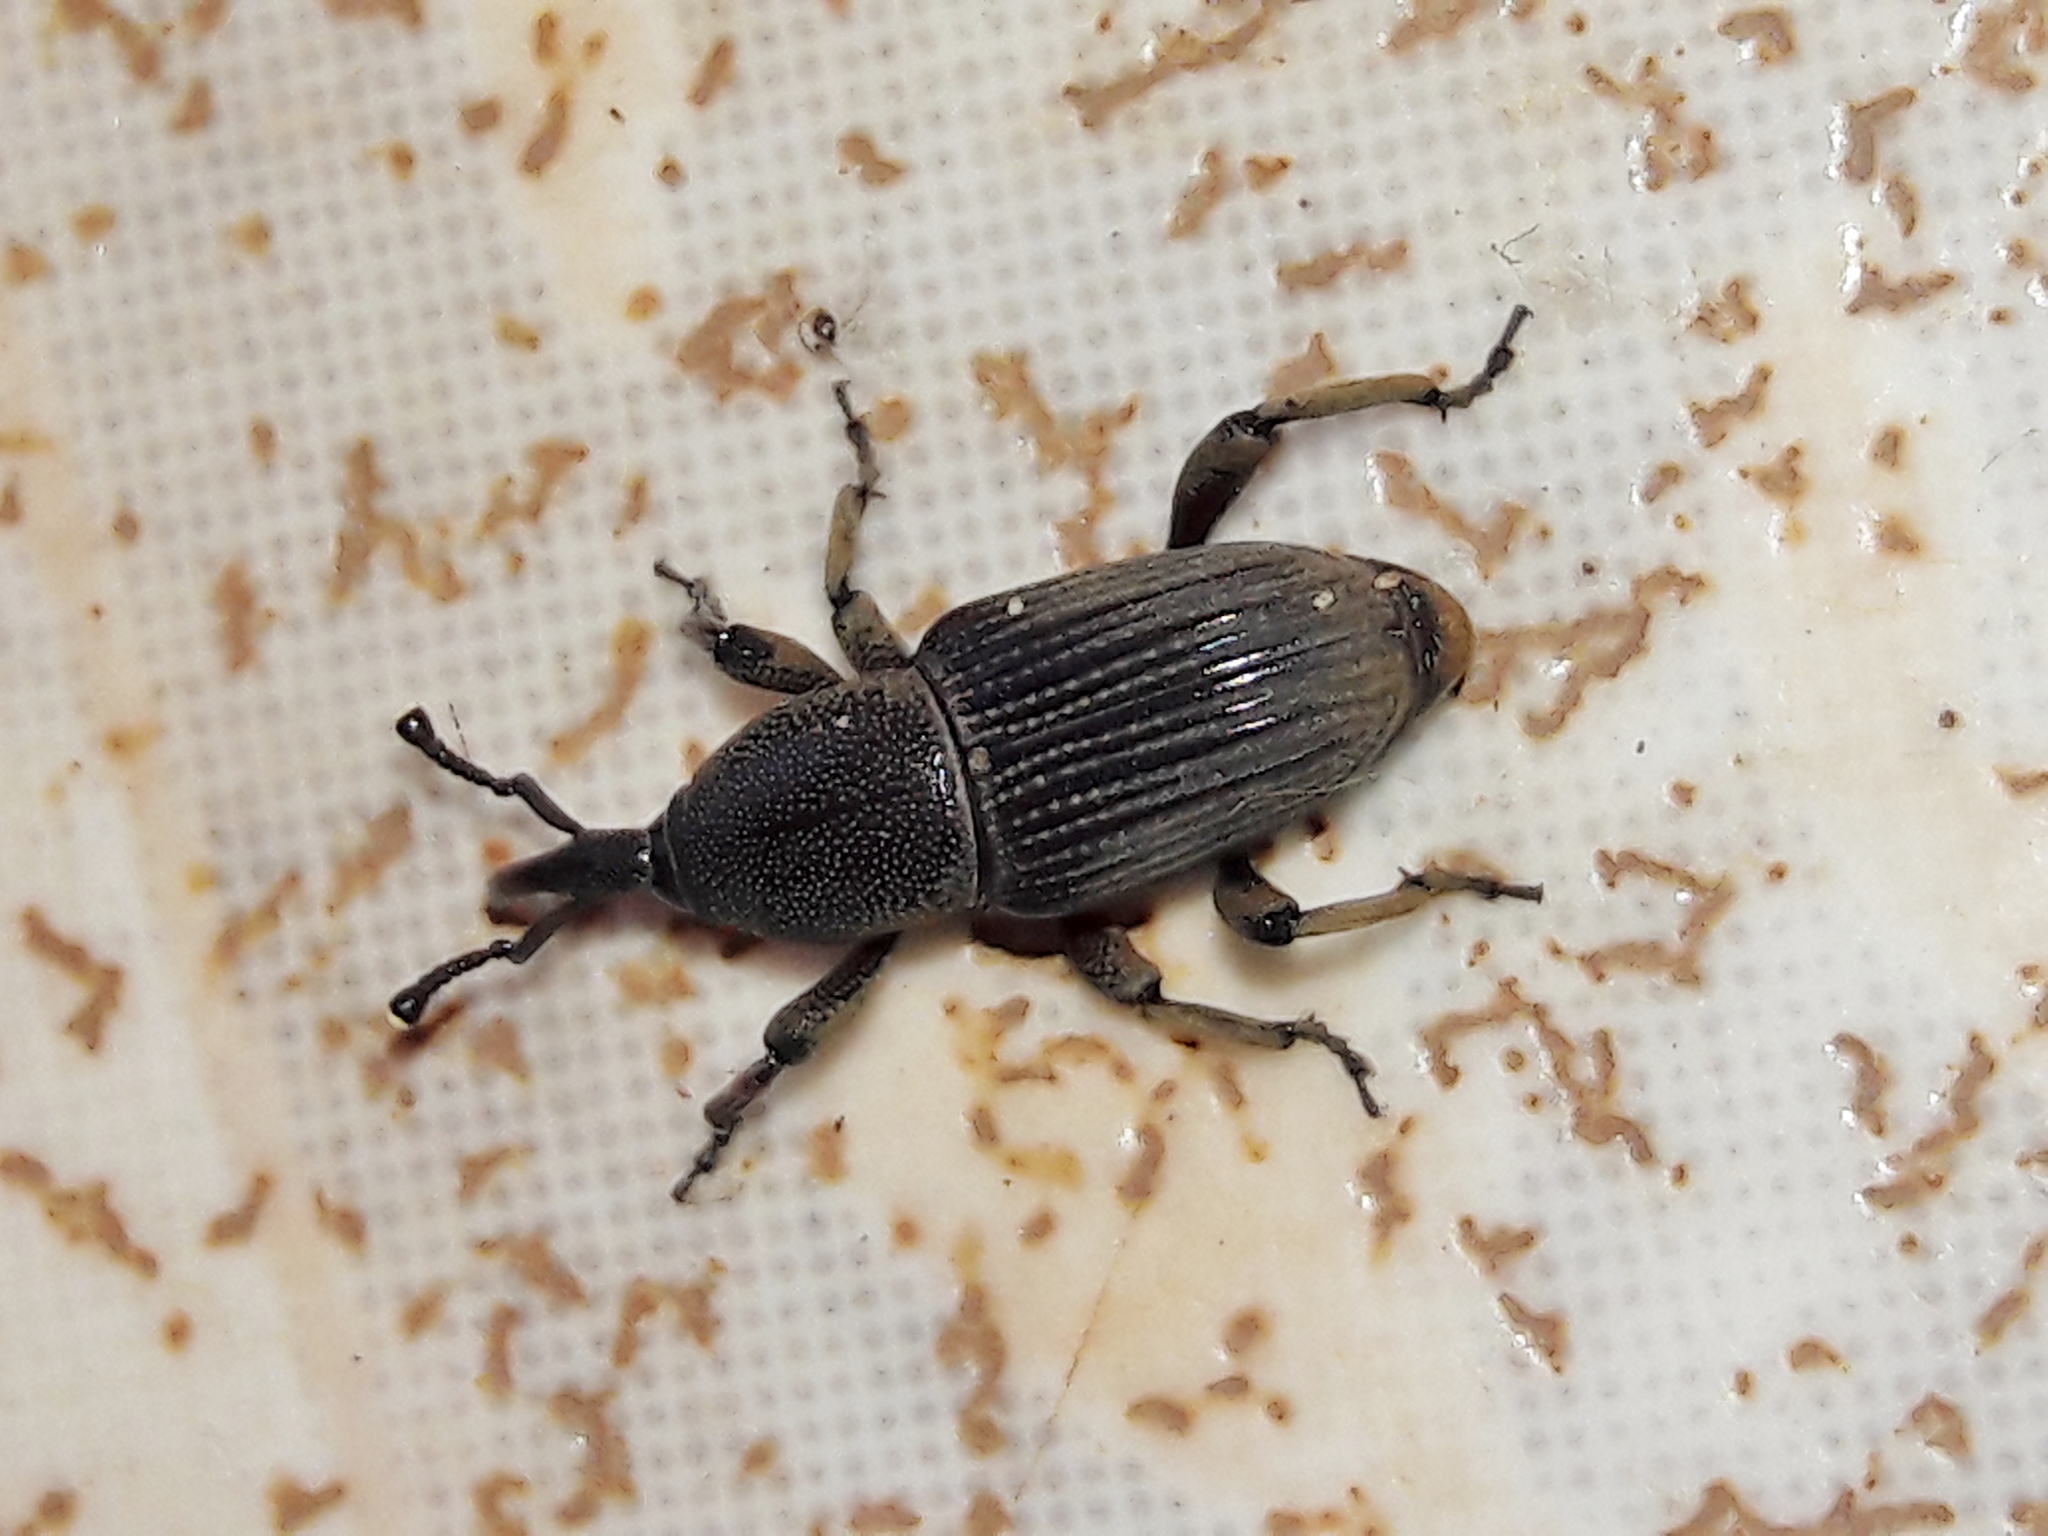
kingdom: Animalia
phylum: Arthropoda
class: Insecta
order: Coleoptera
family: Dryophthoridae
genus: Cosmopolites
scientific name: Cosmopolites sordidus
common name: Palm weevil
